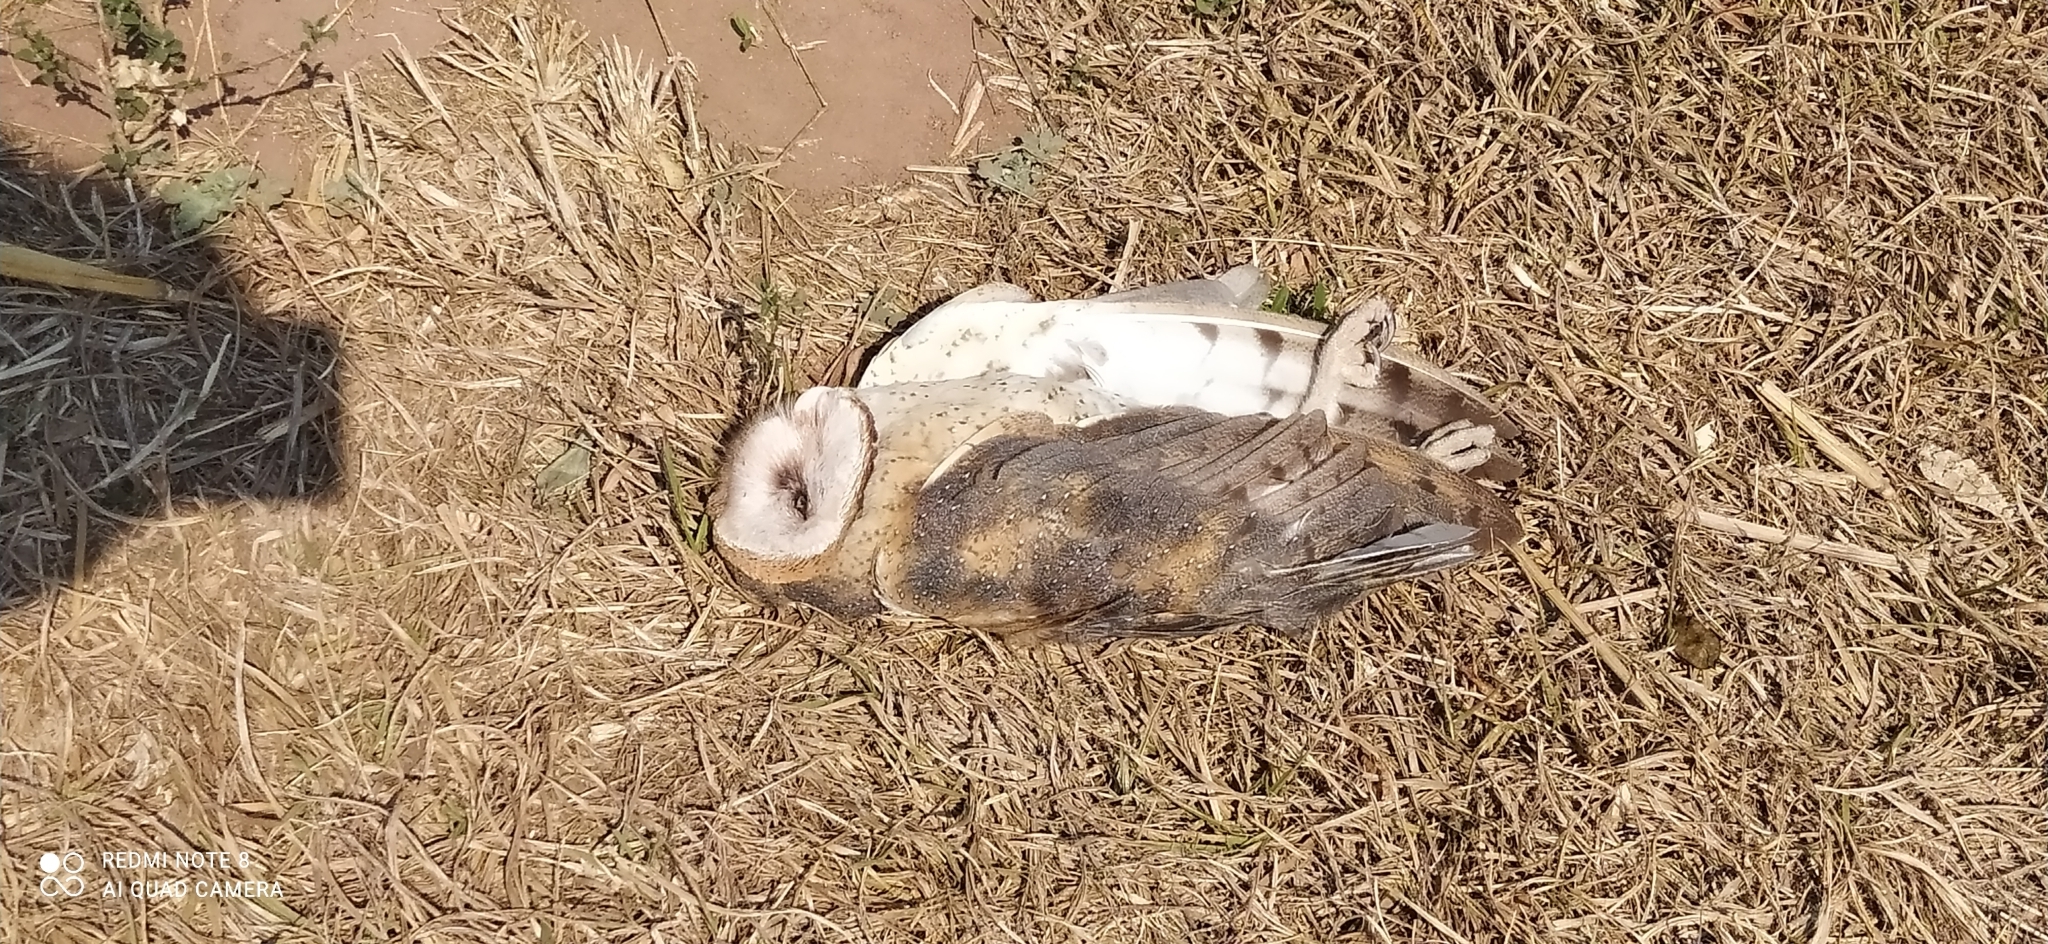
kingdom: Animalia
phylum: Chordata
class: Aves
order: Strigiformes
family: Tytonidae
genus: Tyto
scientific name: Tyto alba
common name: Barn owl
